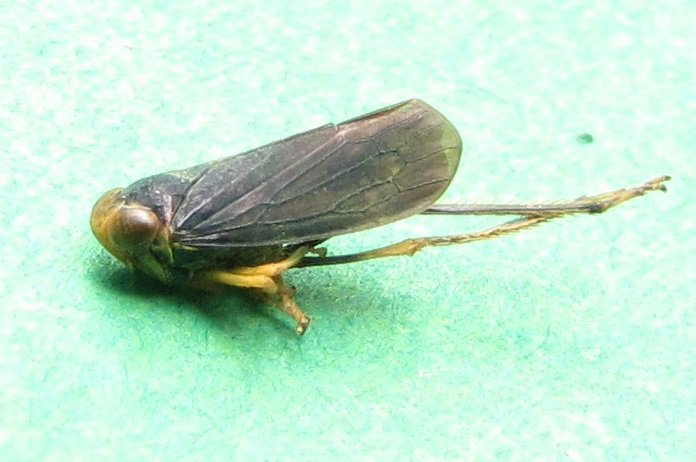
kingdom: Animalia
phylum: Arthropoda
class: Insecta
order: Hemiptera
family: Cicadellidae
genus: Jikradia
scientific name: Jikradia olitoria
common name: Coppery leafhopper
